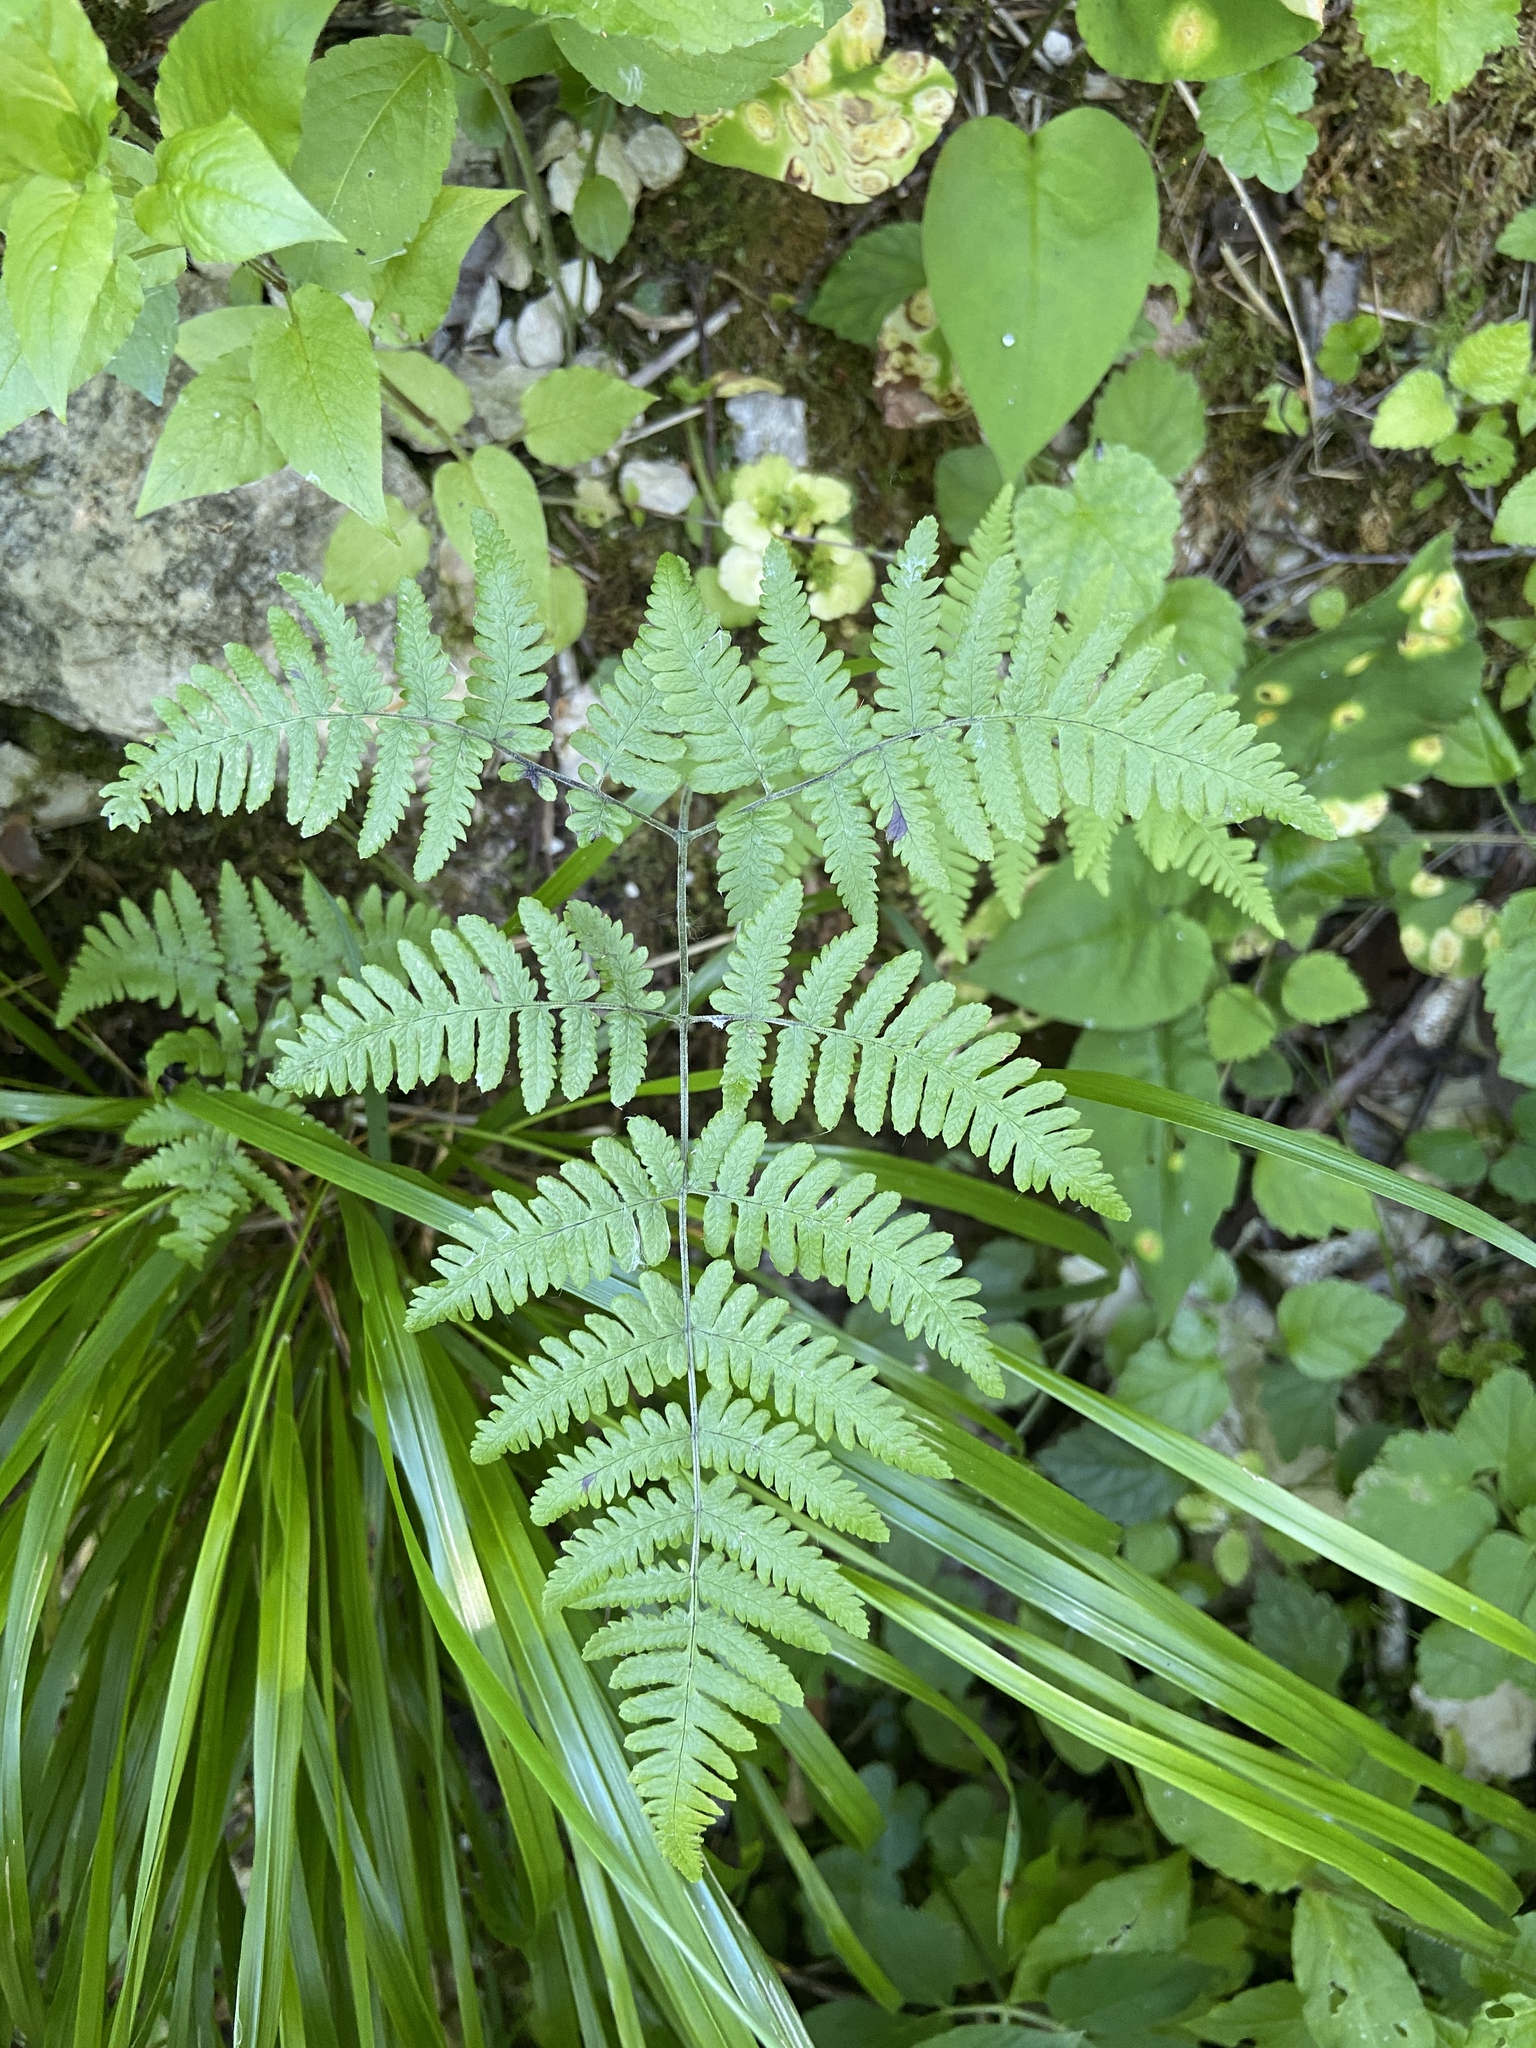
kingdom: Plantae
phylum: Tracheophyta
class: Polypodiopsida
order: Polypodiales
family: Cystopteridaceae
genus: Gymnocarpium
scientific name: Gymnocarpium robertianum
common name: Limestone fern
